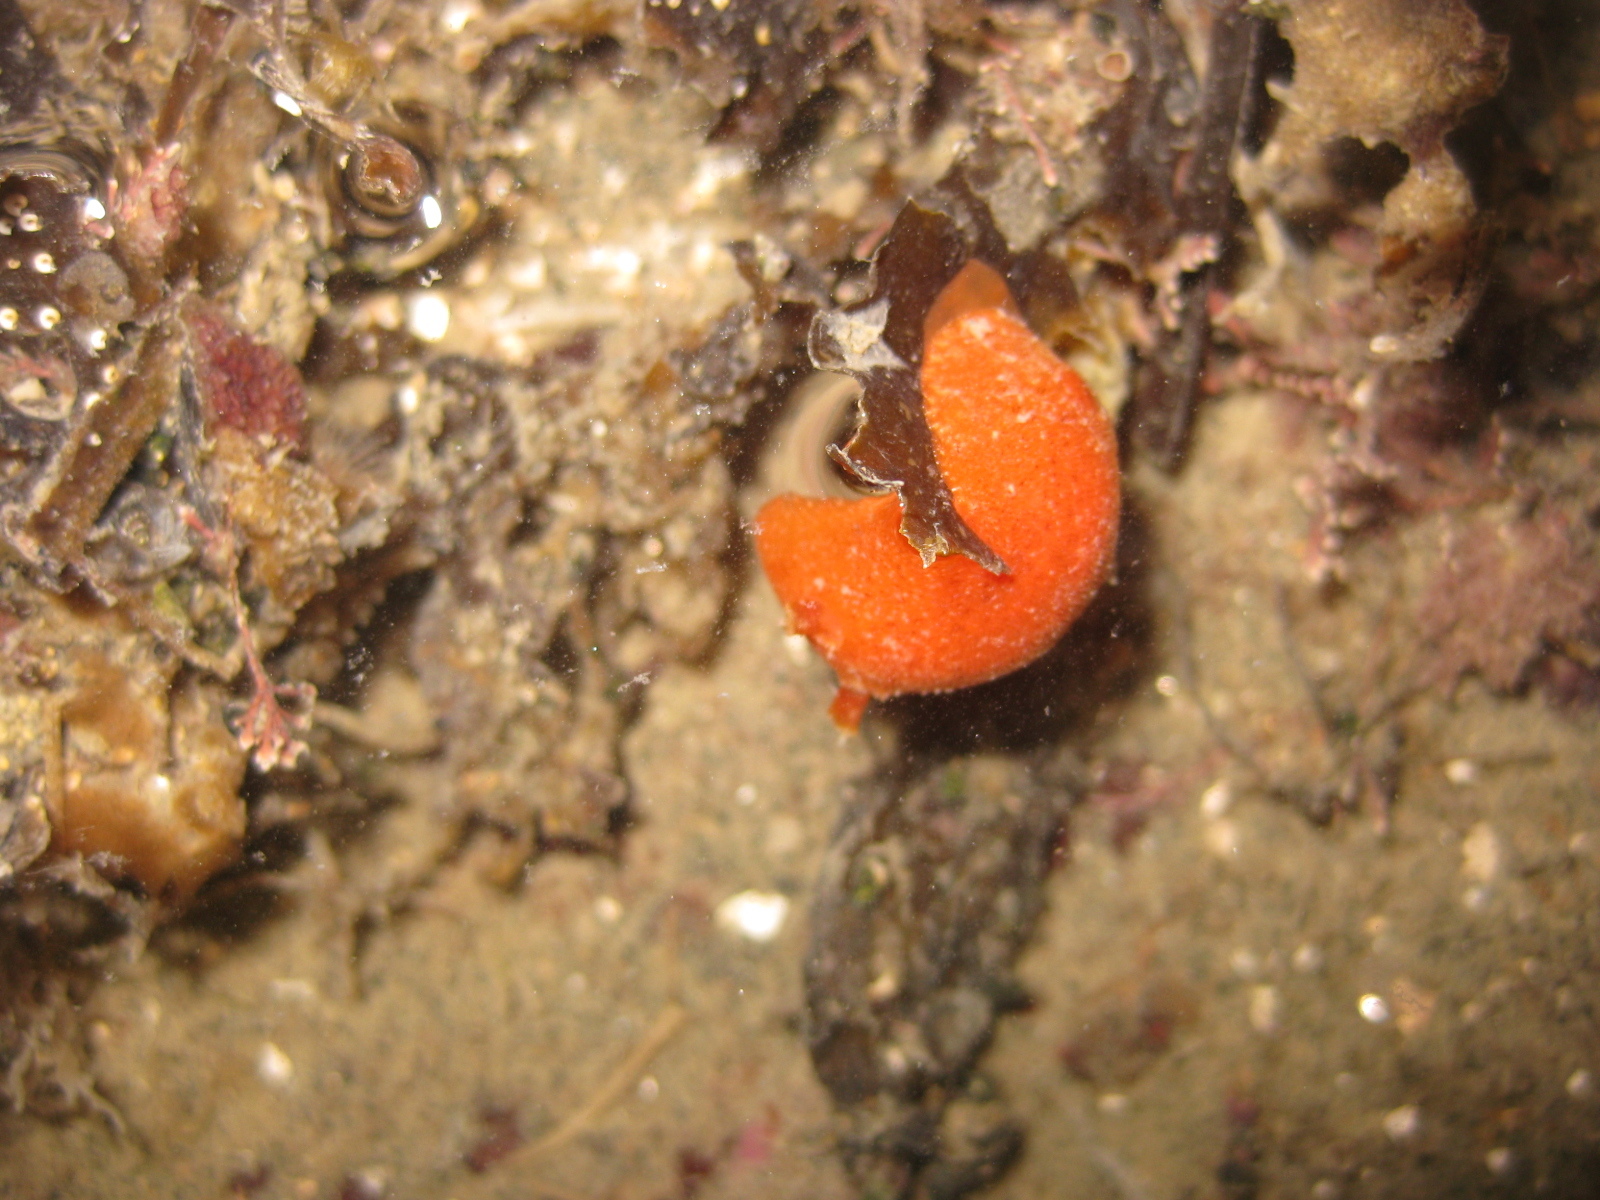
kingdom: Animalia
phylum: Mollusca
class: Gastropoda
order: Nudibranchia
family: Discodorididae
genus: Rostanga
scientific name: Rostanga muscula
